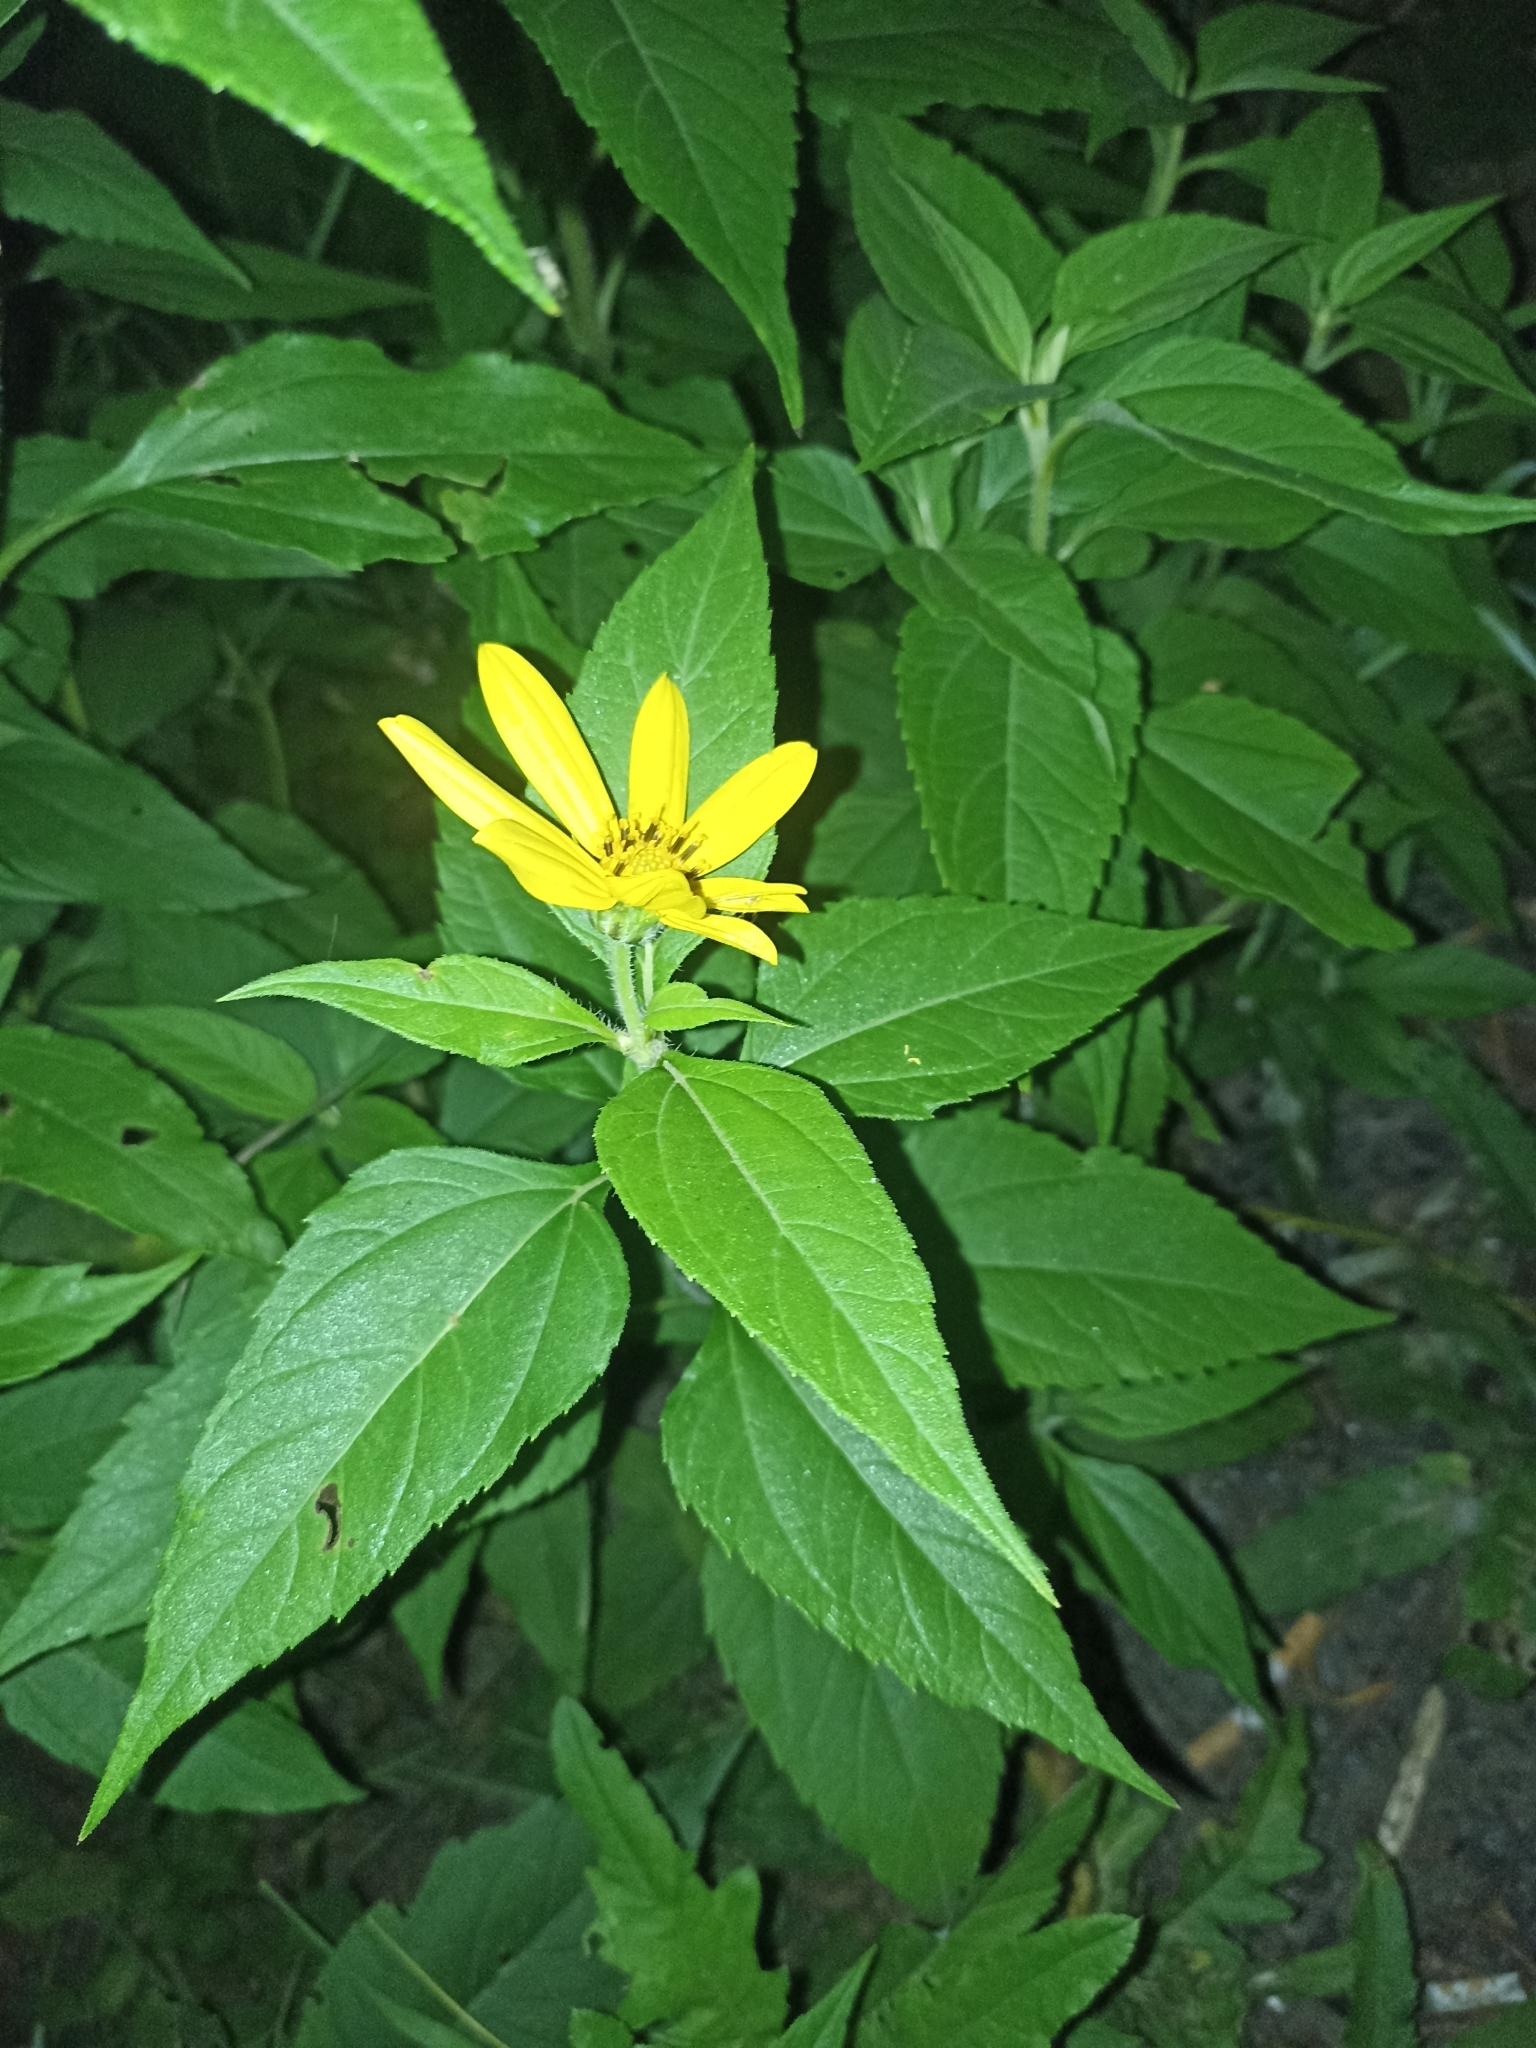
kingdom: Plantae
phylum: Tracheophyta
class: Magnoliopsida
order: Asterales
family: Asteraceae
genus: Helianthus
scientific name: Helianthus tuberosus
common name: Jerusalem artichoke
